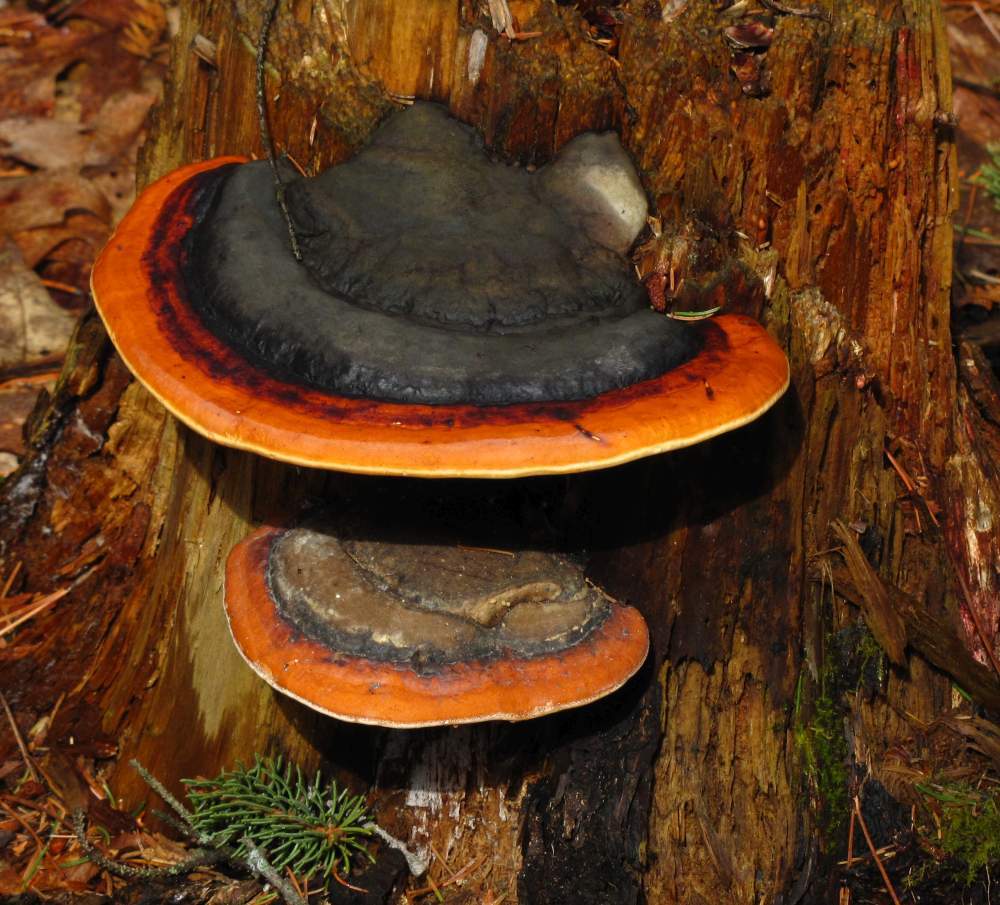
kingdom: Fungi
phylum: Basidiomycota
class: Agaricomycetes
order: Polyporales
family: Fomitopsidaceae
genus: Fomitopsis
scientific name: Fomitopsis mounceae
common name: Northern red belt
